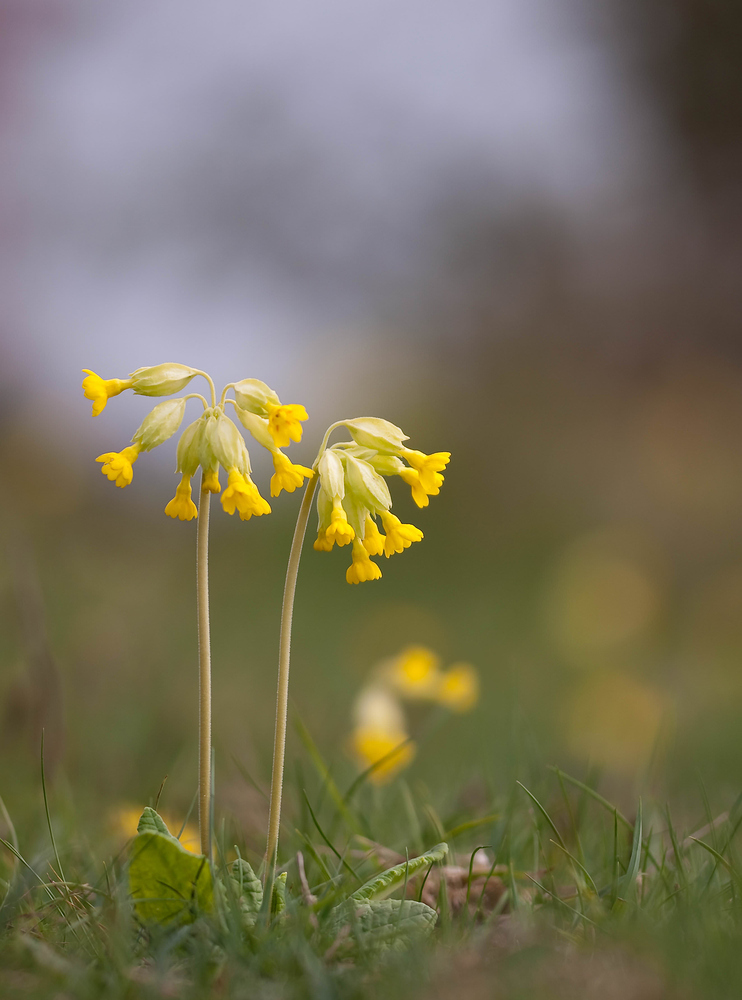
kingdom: Plantae
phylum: Tracheophyta
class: Magnoliopsida
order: Ericales
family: Primulaceae
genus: Primula
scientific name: Primula veris
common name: Cowslip
